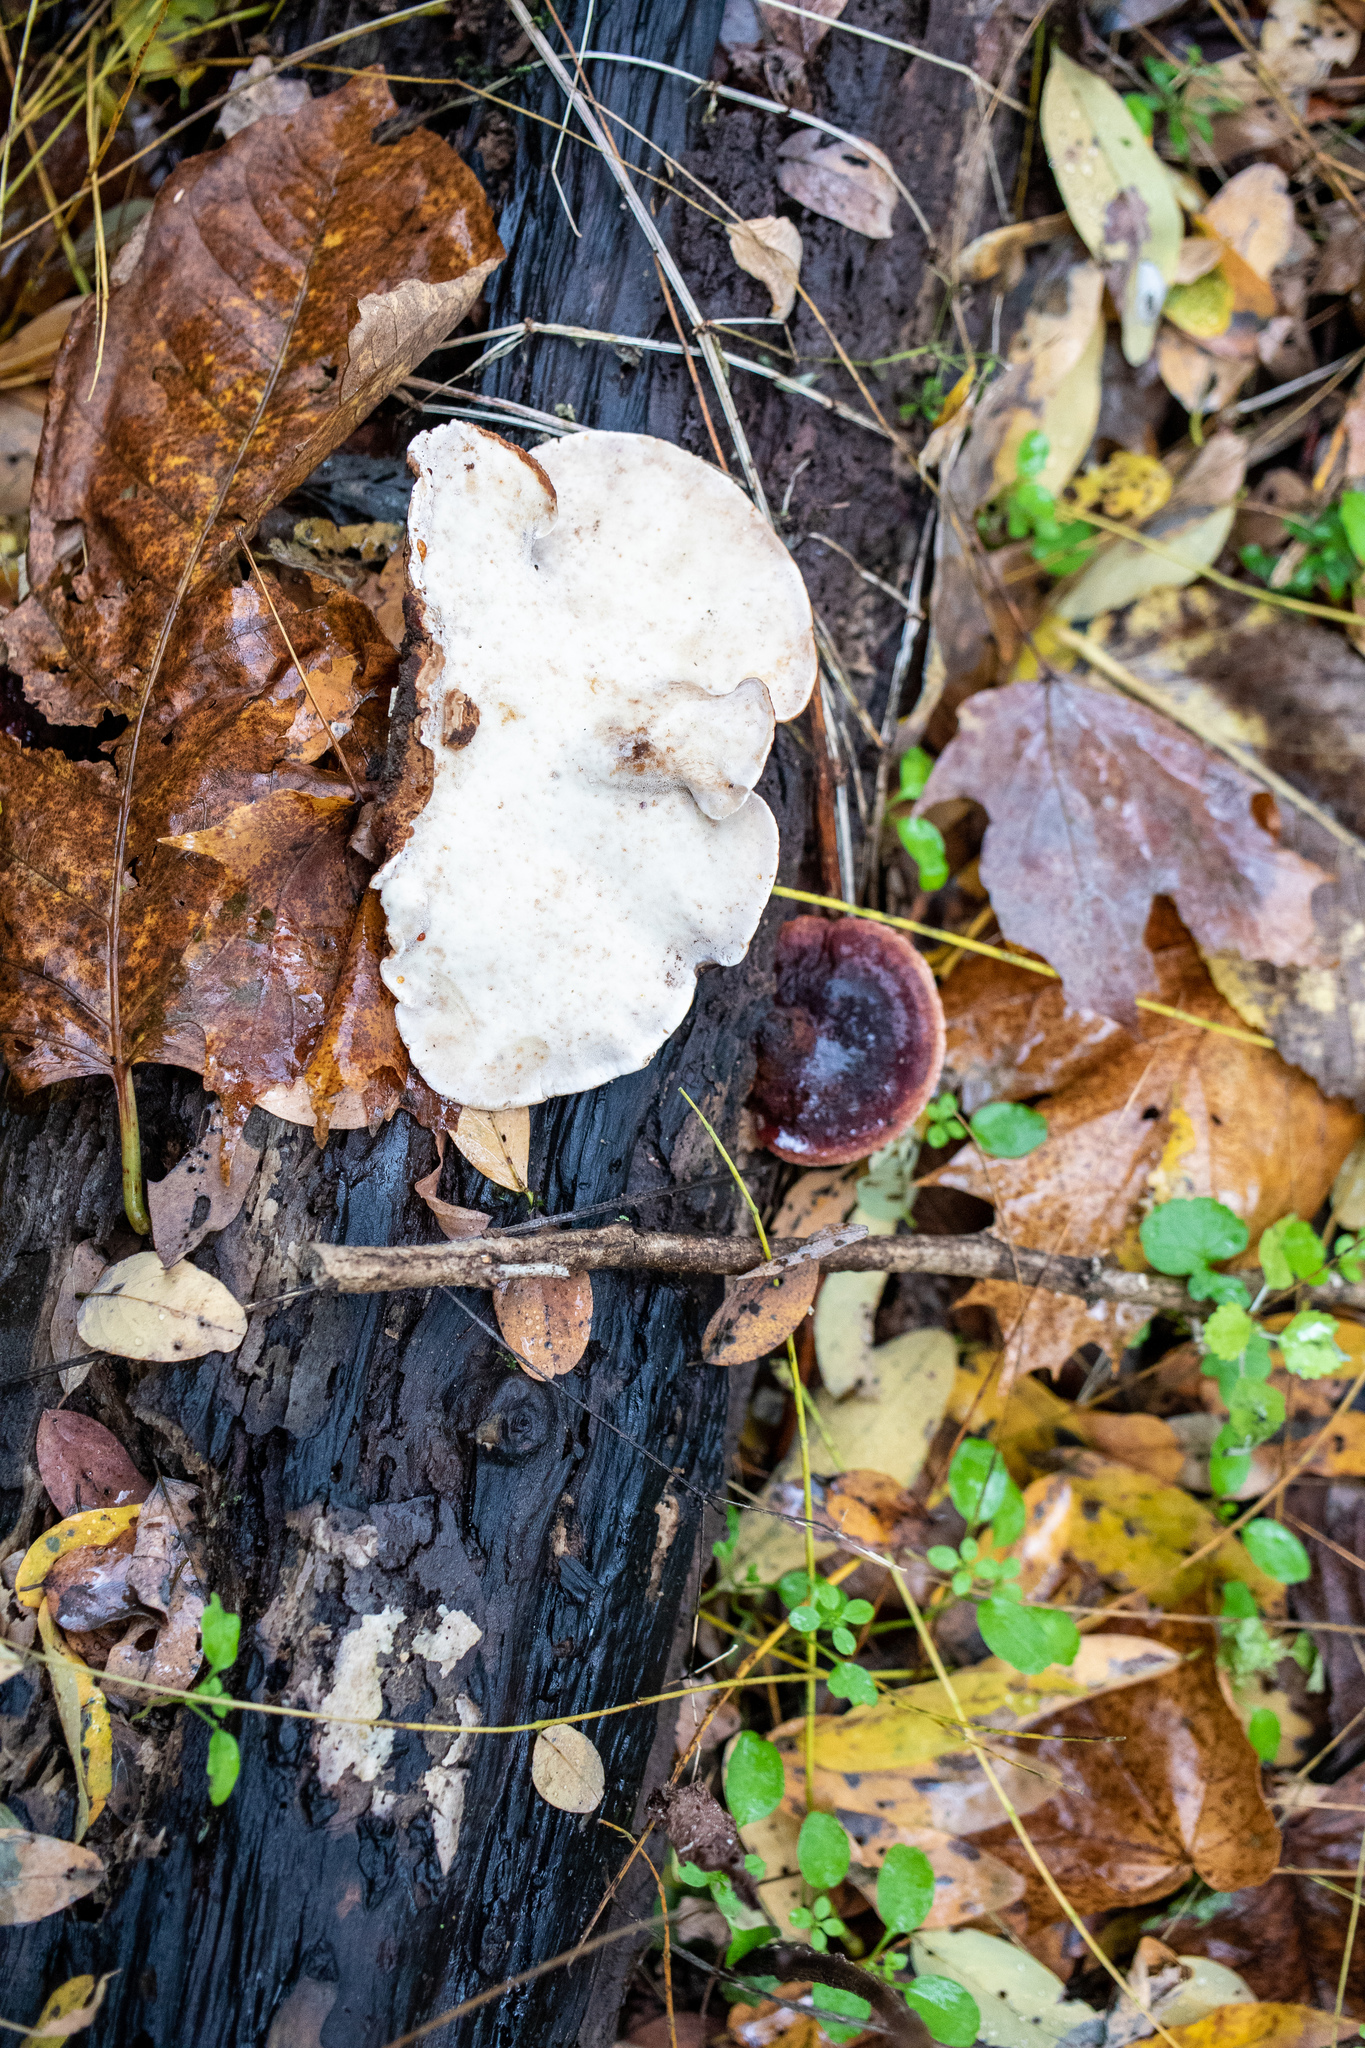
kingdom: Fungi
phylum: Basidiomycota
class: Agaricomycetes
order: Polyporales
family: Ischnodermataceae
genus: Ischnoderma
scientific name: Ischnoderma resinosum
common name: Resinous polypore
